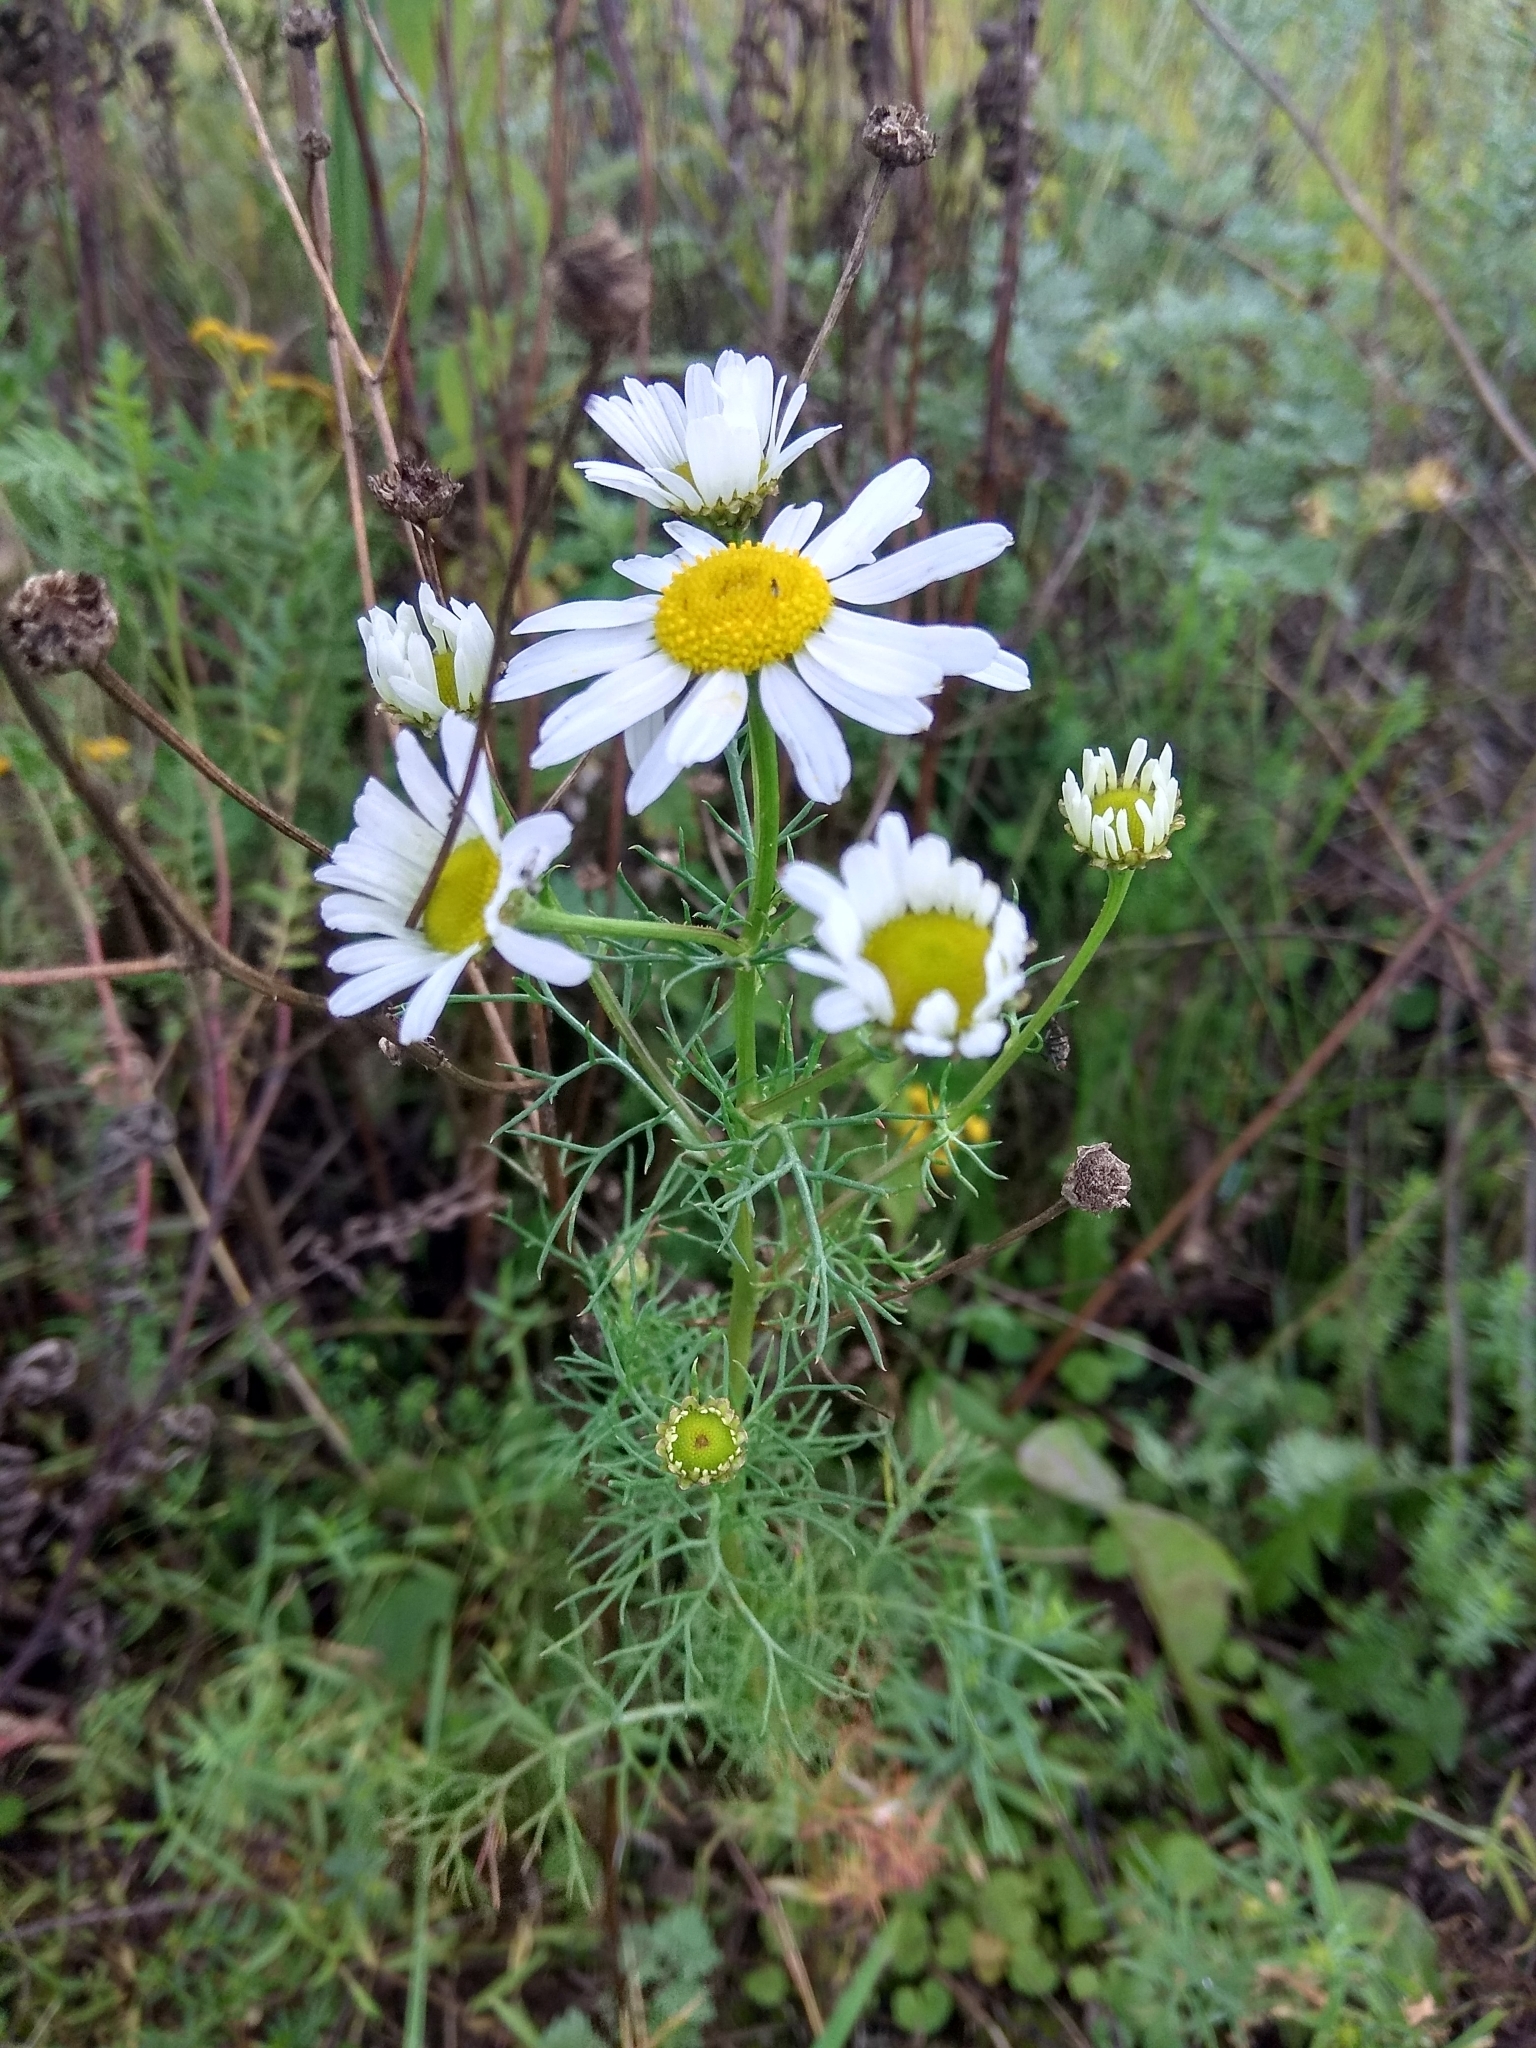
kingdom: Plantae
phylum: Tracheophyta
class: Magnoliopsida
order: Asterales
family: Asteraceae
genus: Tripleurospermum
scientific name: Tripleurospermum inodorum
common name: Scentless mayweed
